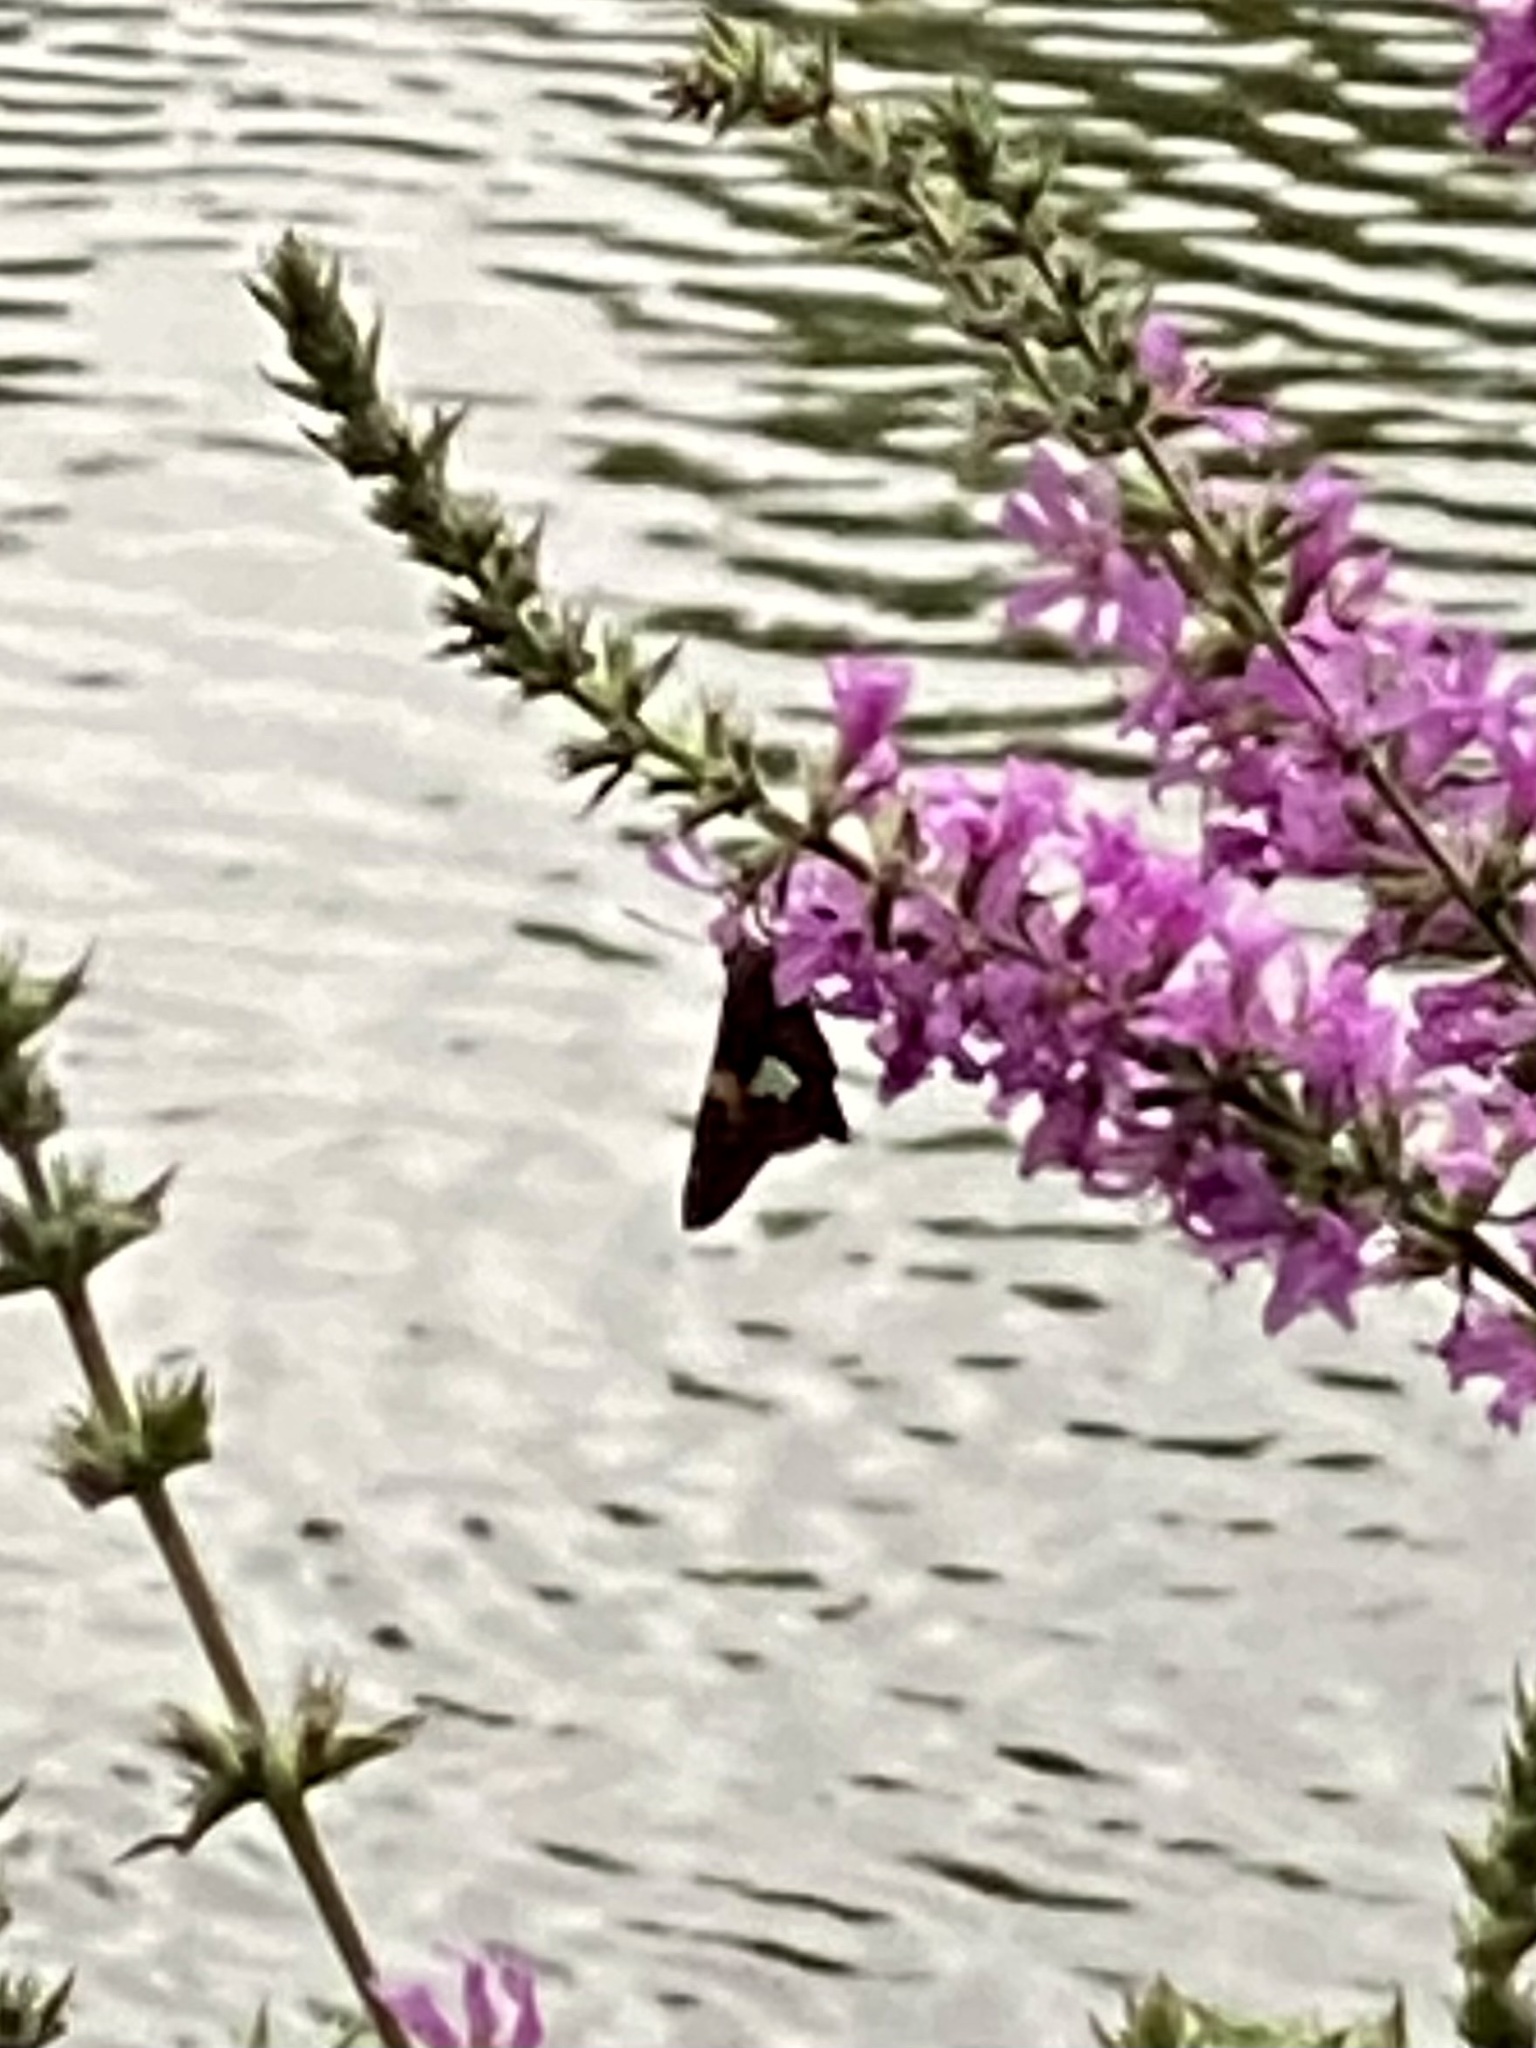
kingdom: Animalia
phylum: Arthropoda
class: Insecta
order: Lepidoptera
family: Hesperiidae
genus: Epargyreus
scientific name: Epargyreus clarus
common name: Silver-spotted skipper
